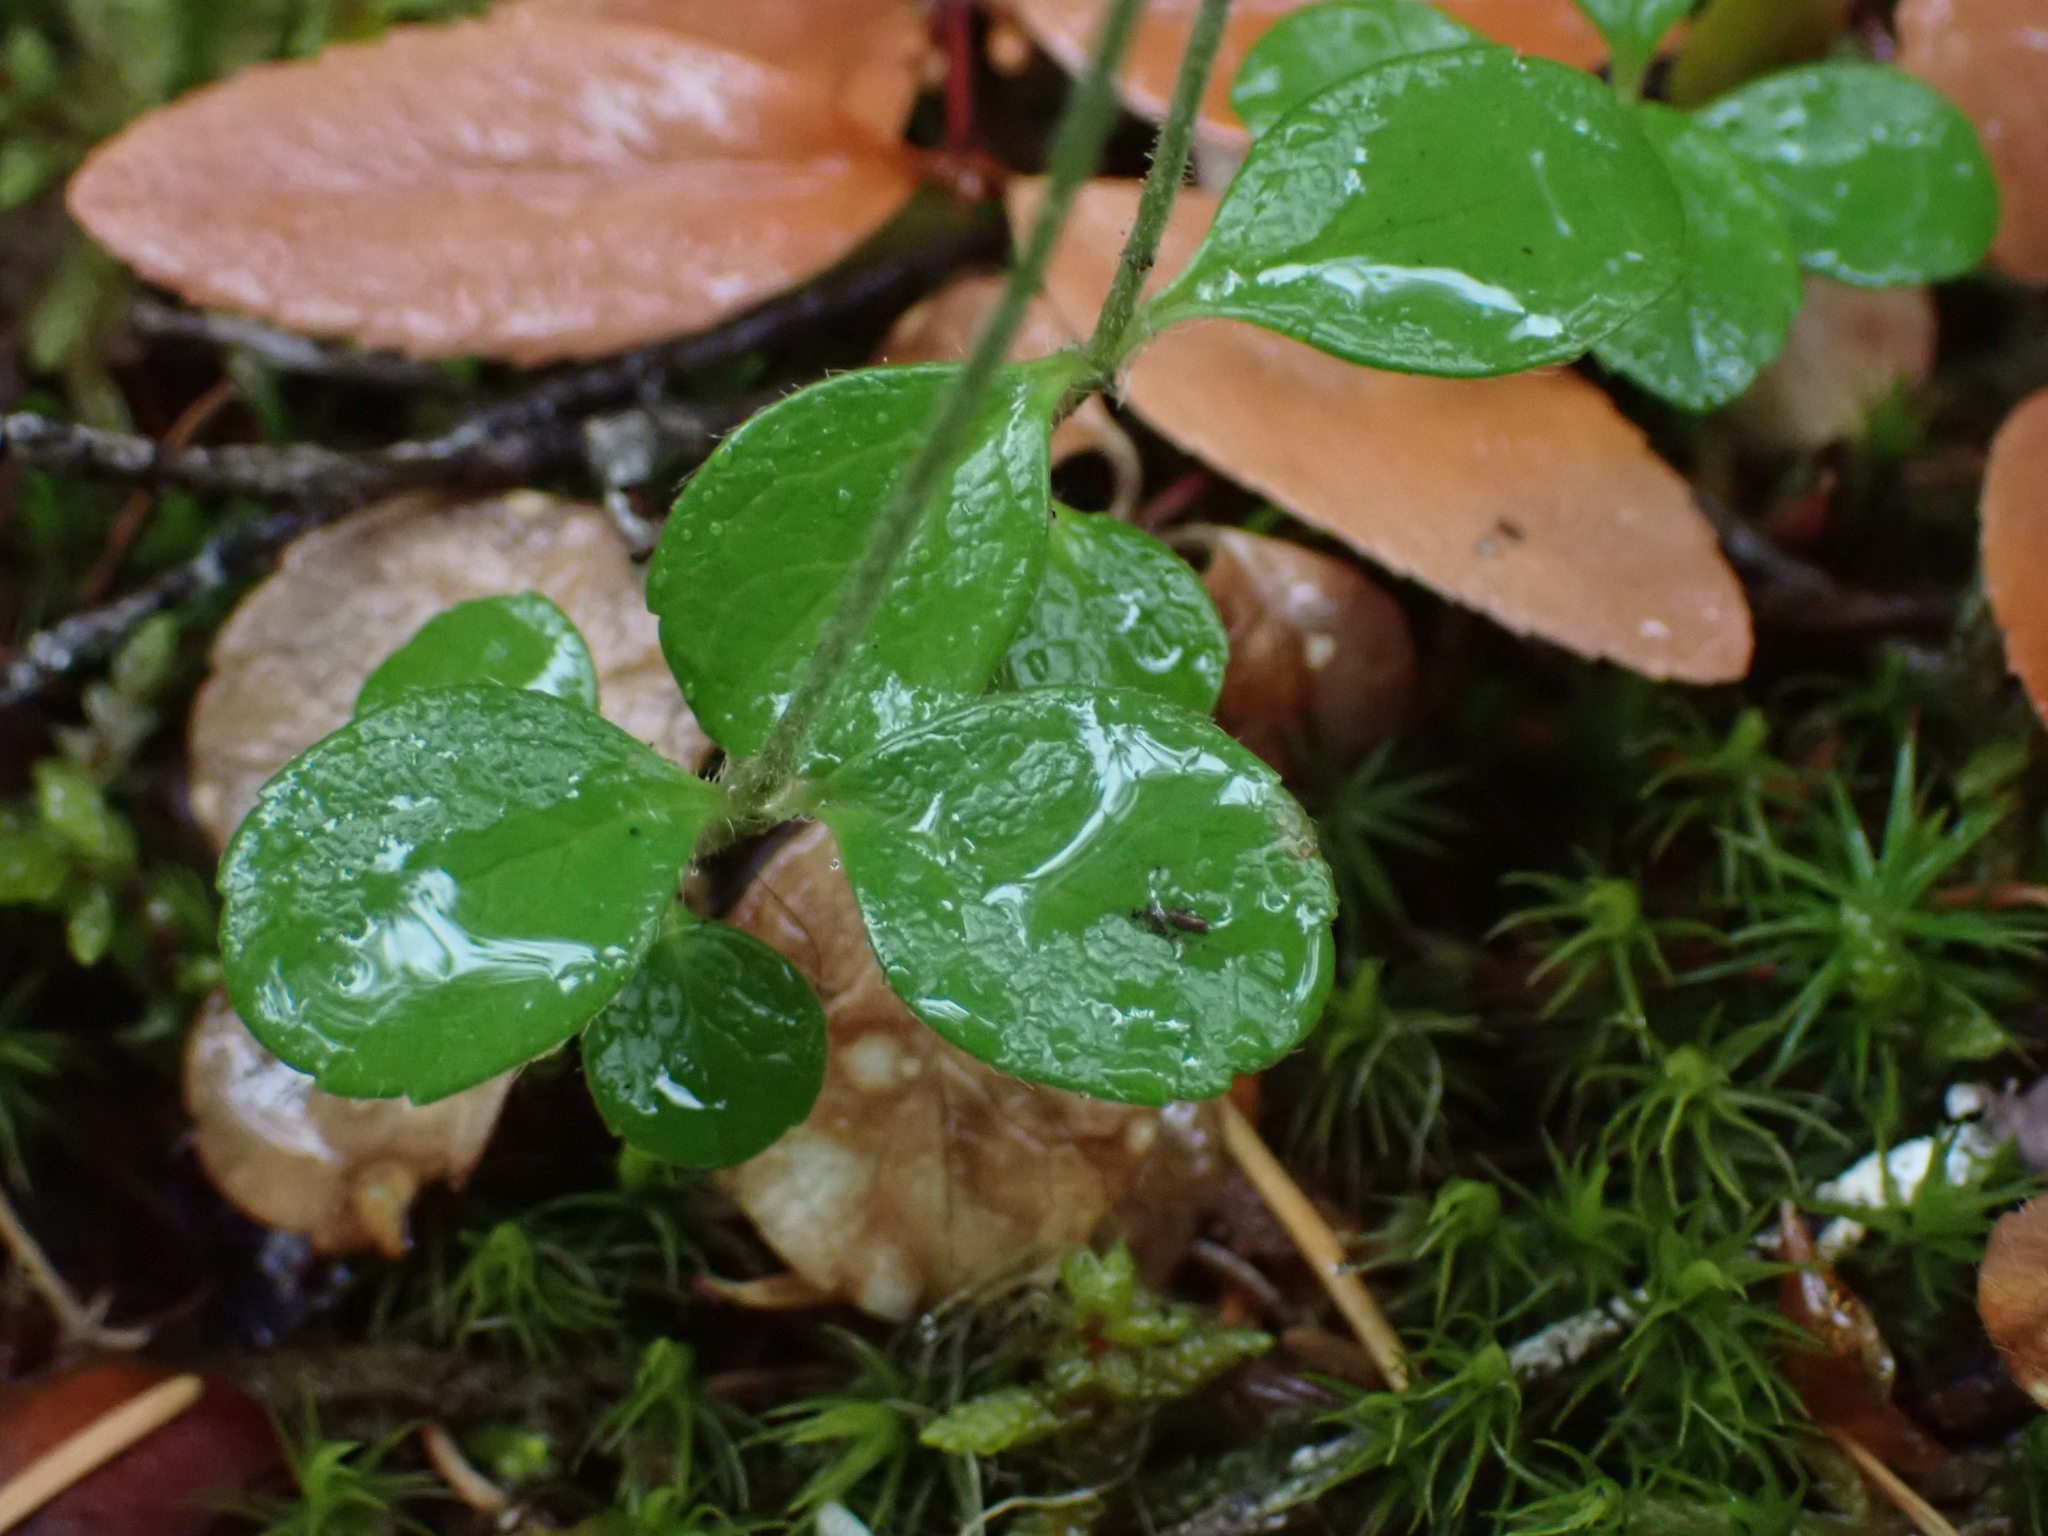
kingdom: Plantae
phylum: Tracheophyta
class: Magnoliopsida
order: Dipsacales
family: Caprifoliaceae
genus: Linnaea
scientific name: Linnaea borealis
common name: Twinflower
